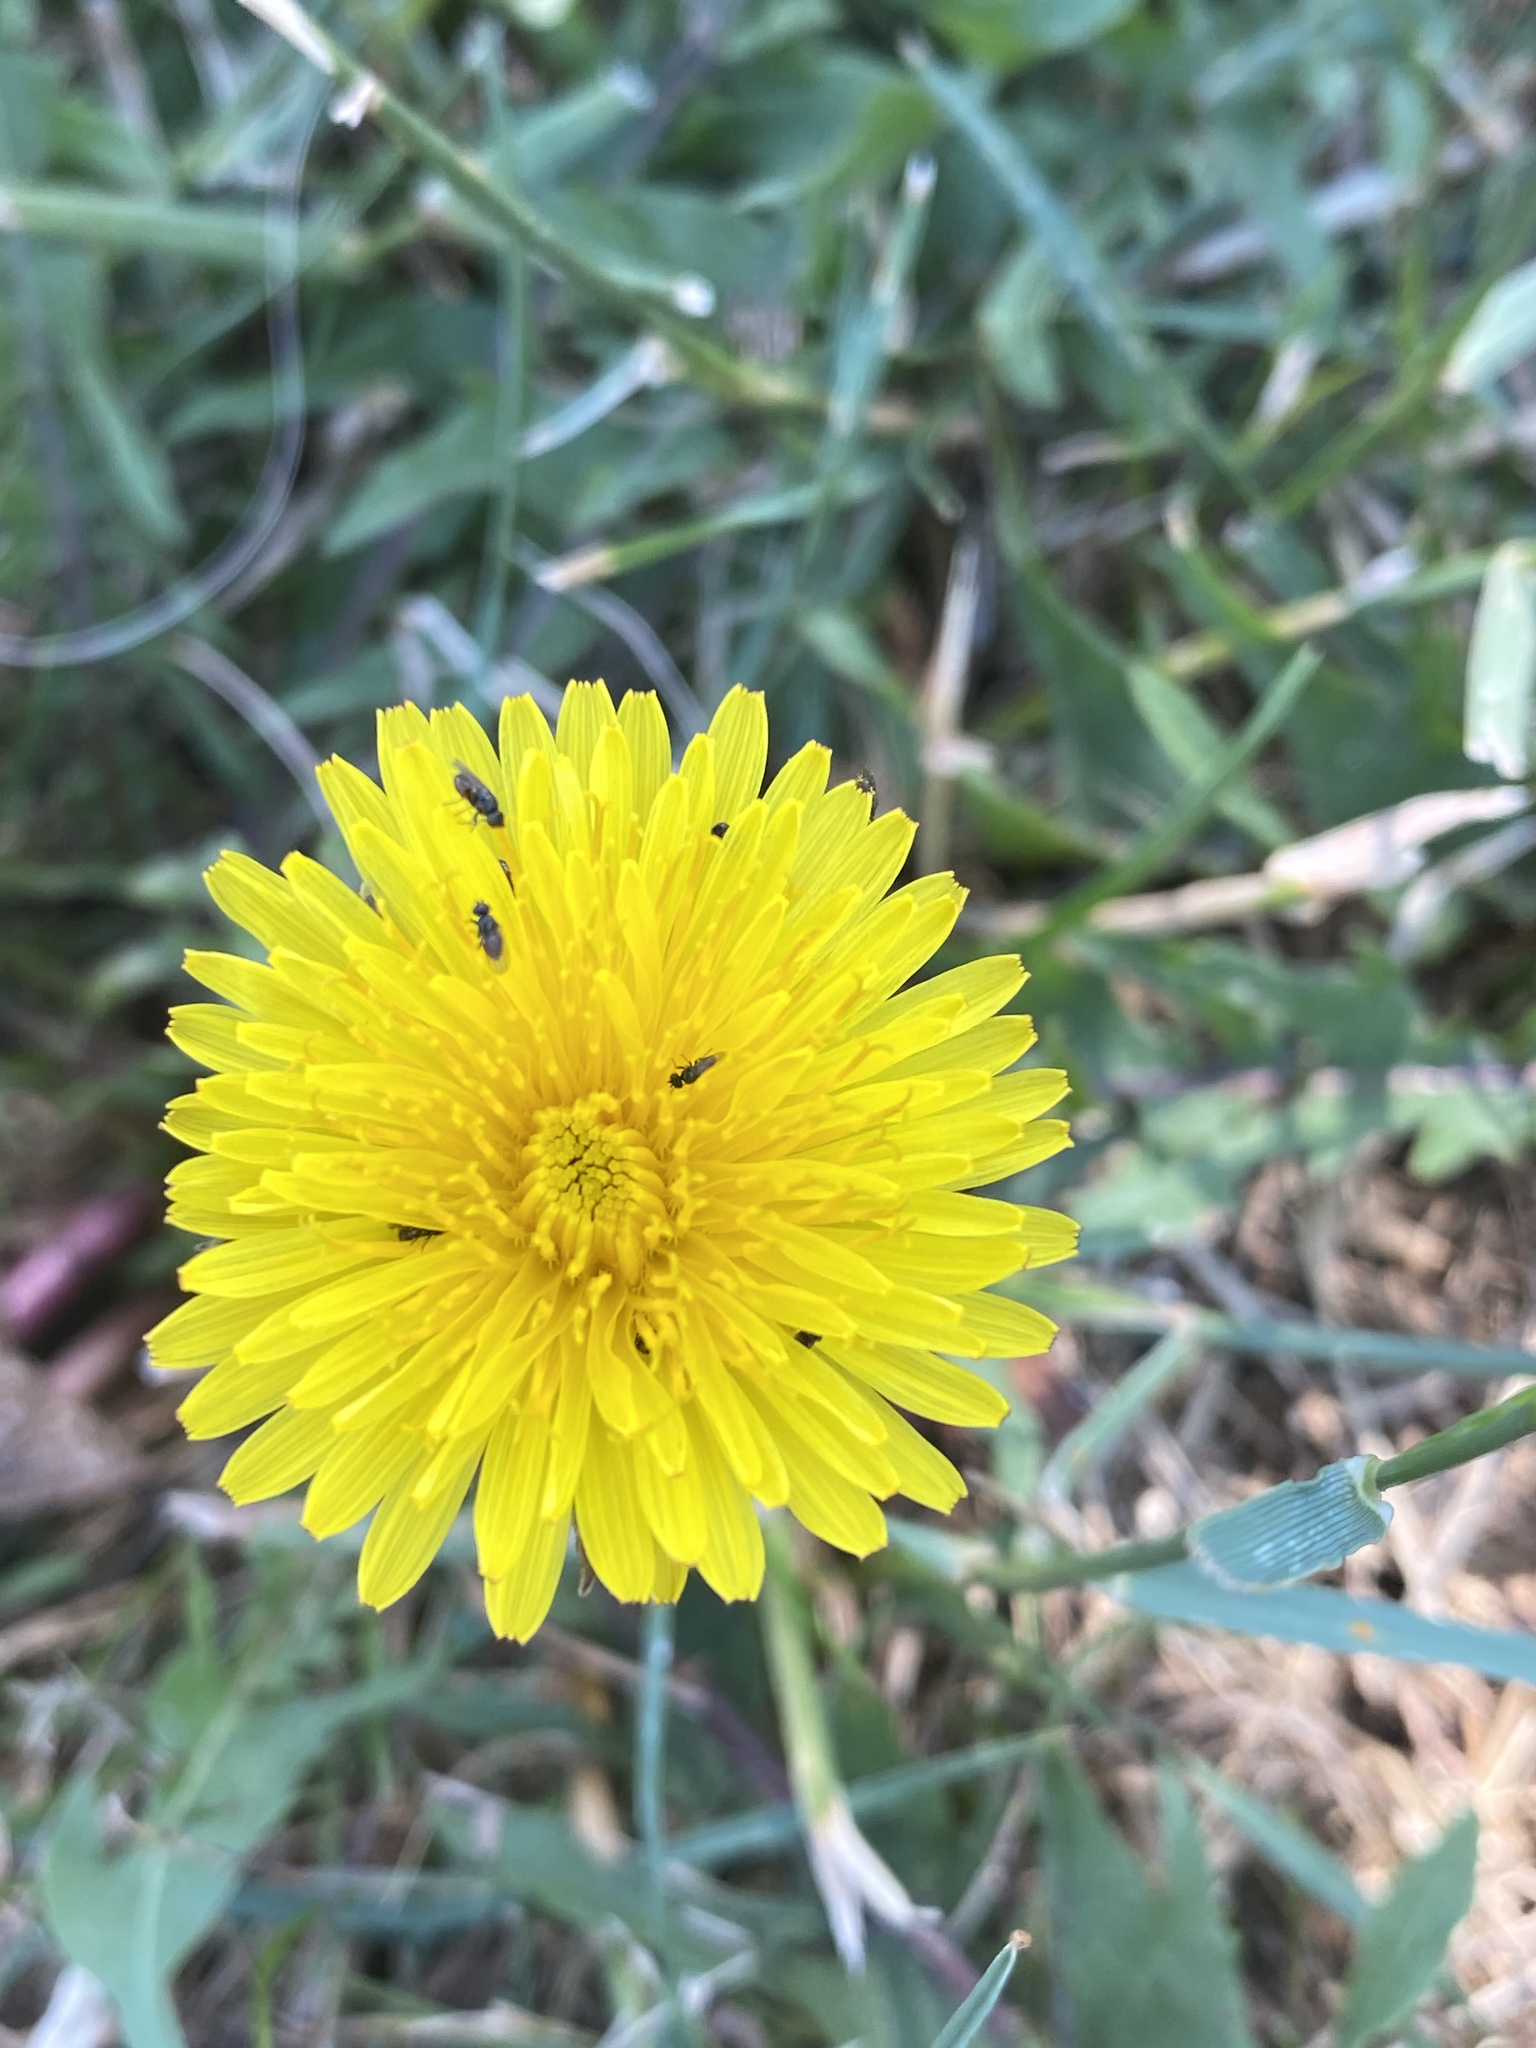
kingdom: Plantae
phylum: Tracheophyta
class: Magnoliopsida
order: Asterales
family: Asteraceae
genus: Taraxacum
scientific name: Taraxacum officinale
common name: Common dandelion
